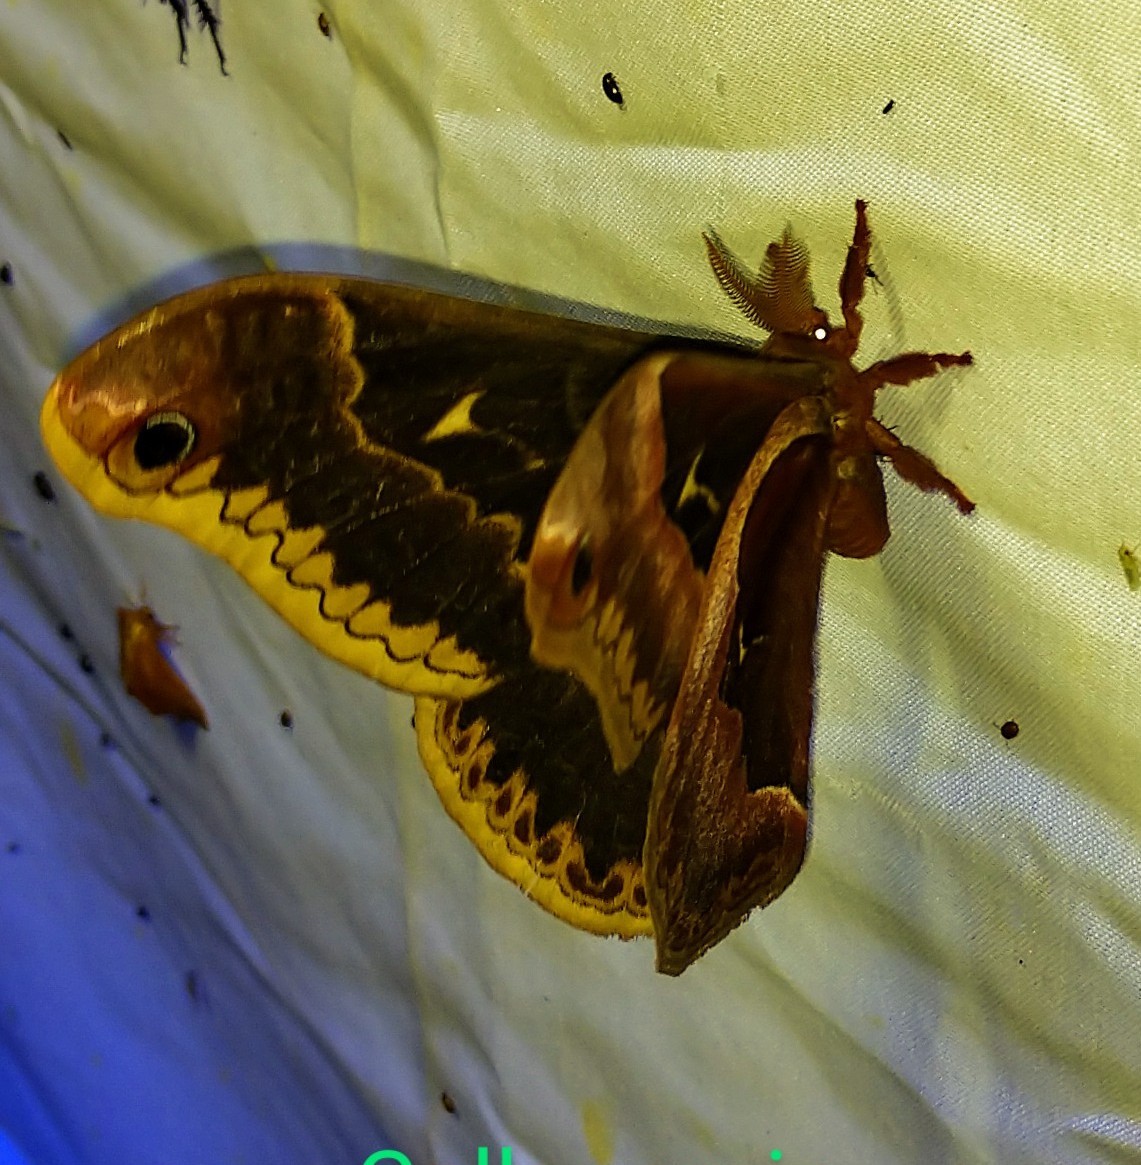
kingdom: Animalia
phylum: Arthropoda
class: Insecta
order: Lepidoptera
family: Saturniidae
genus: Callosamia
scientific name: Callosamia angulifera
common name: Tulip tree silkmoth
